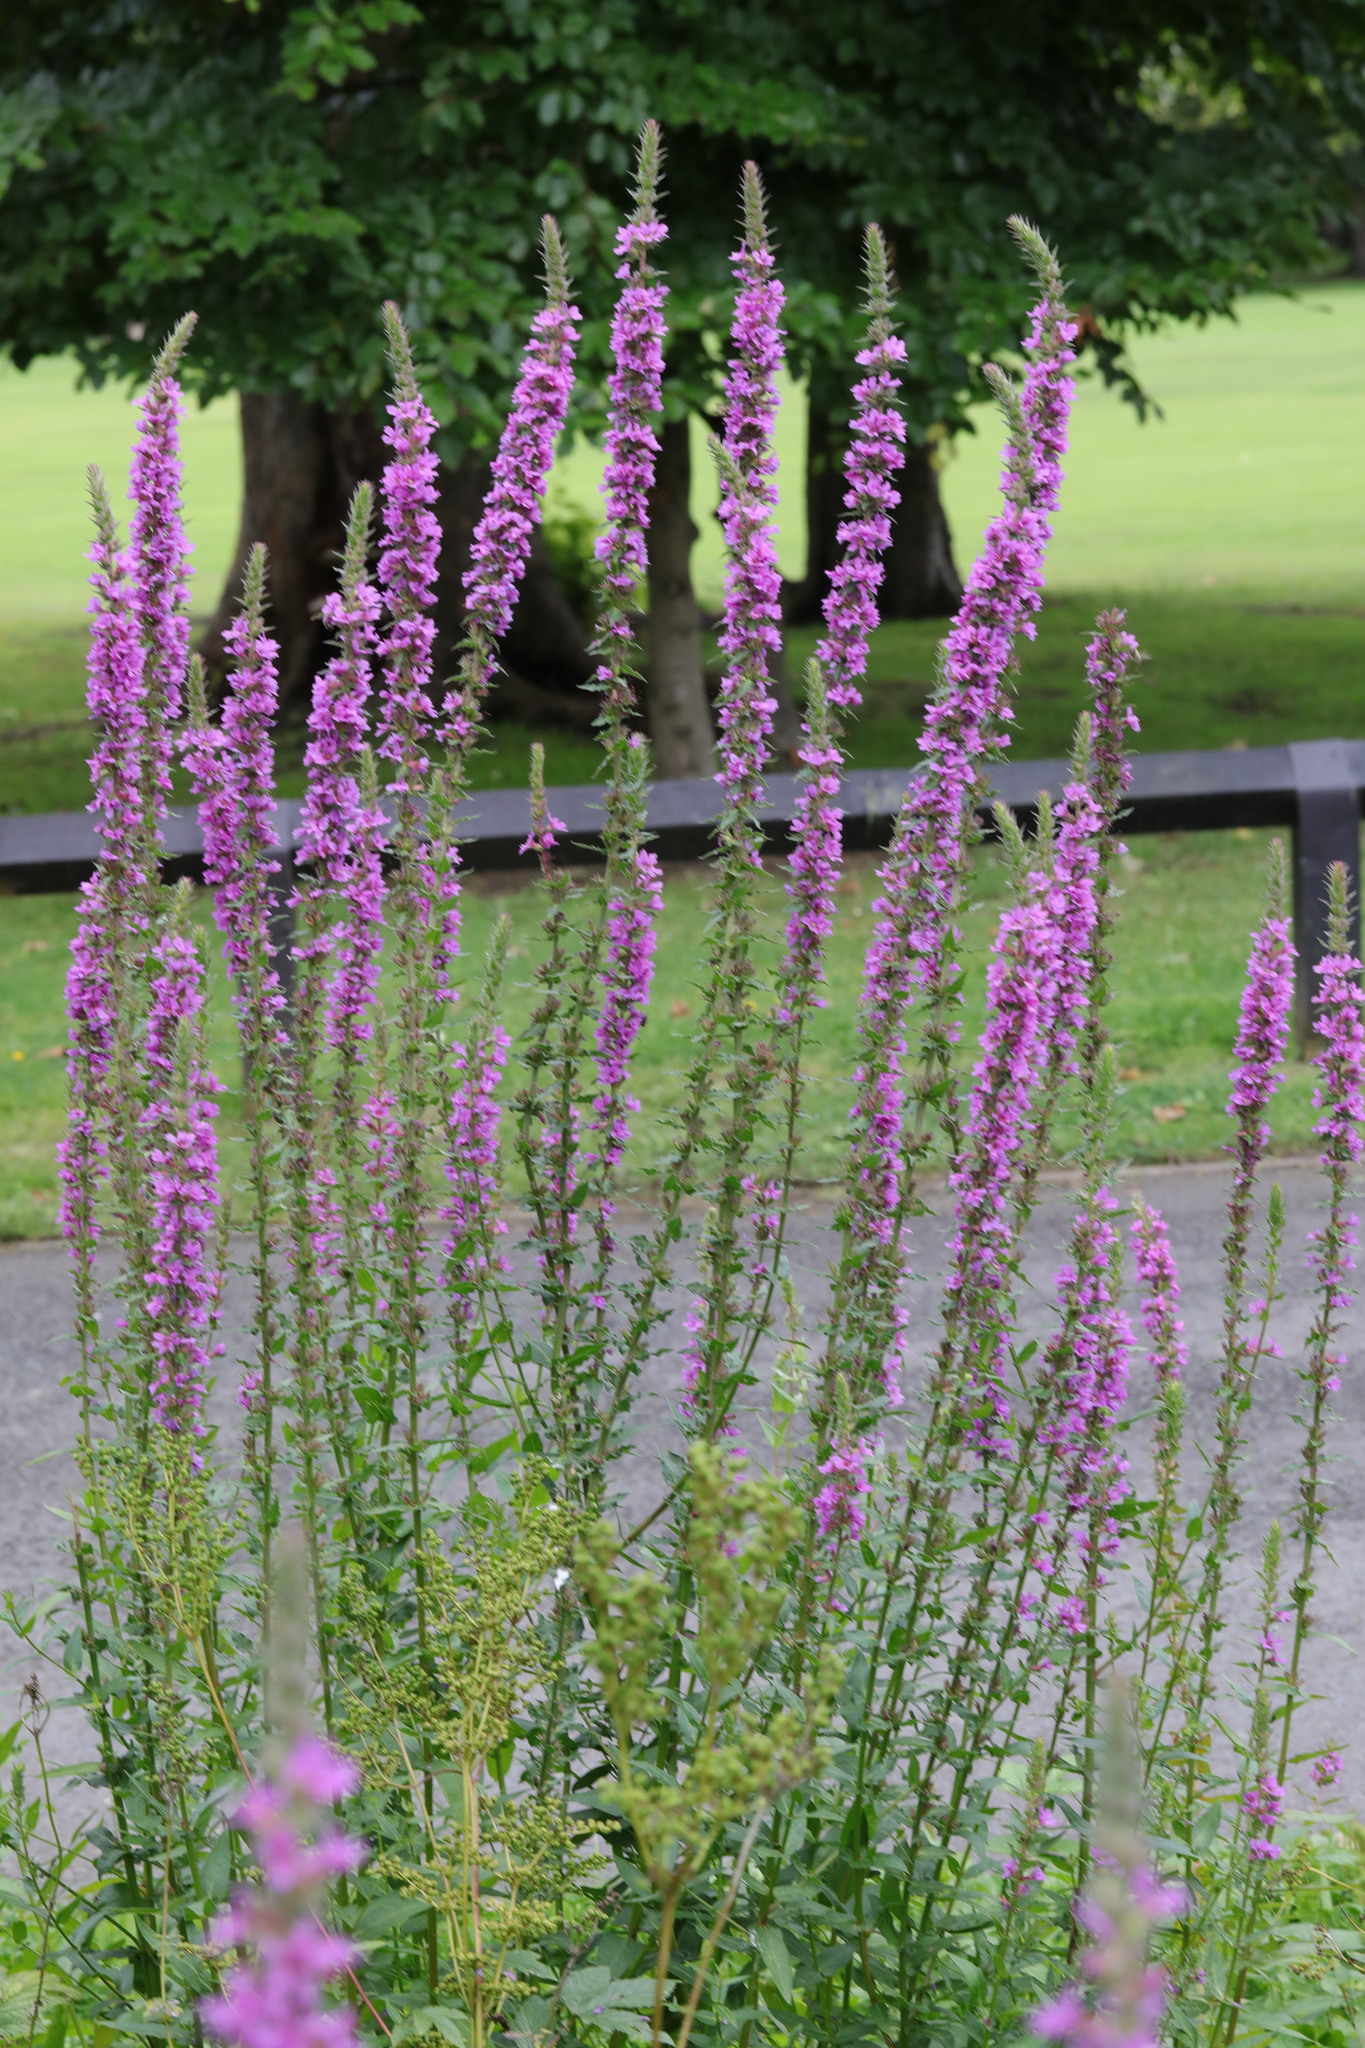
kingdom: Plantae
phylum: Tracheophyta
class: Magnoliopsida
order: Myrtales
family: Lythraceae
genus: Lythrum
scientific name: Lythrum salicaria
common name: Purple loosestrife
